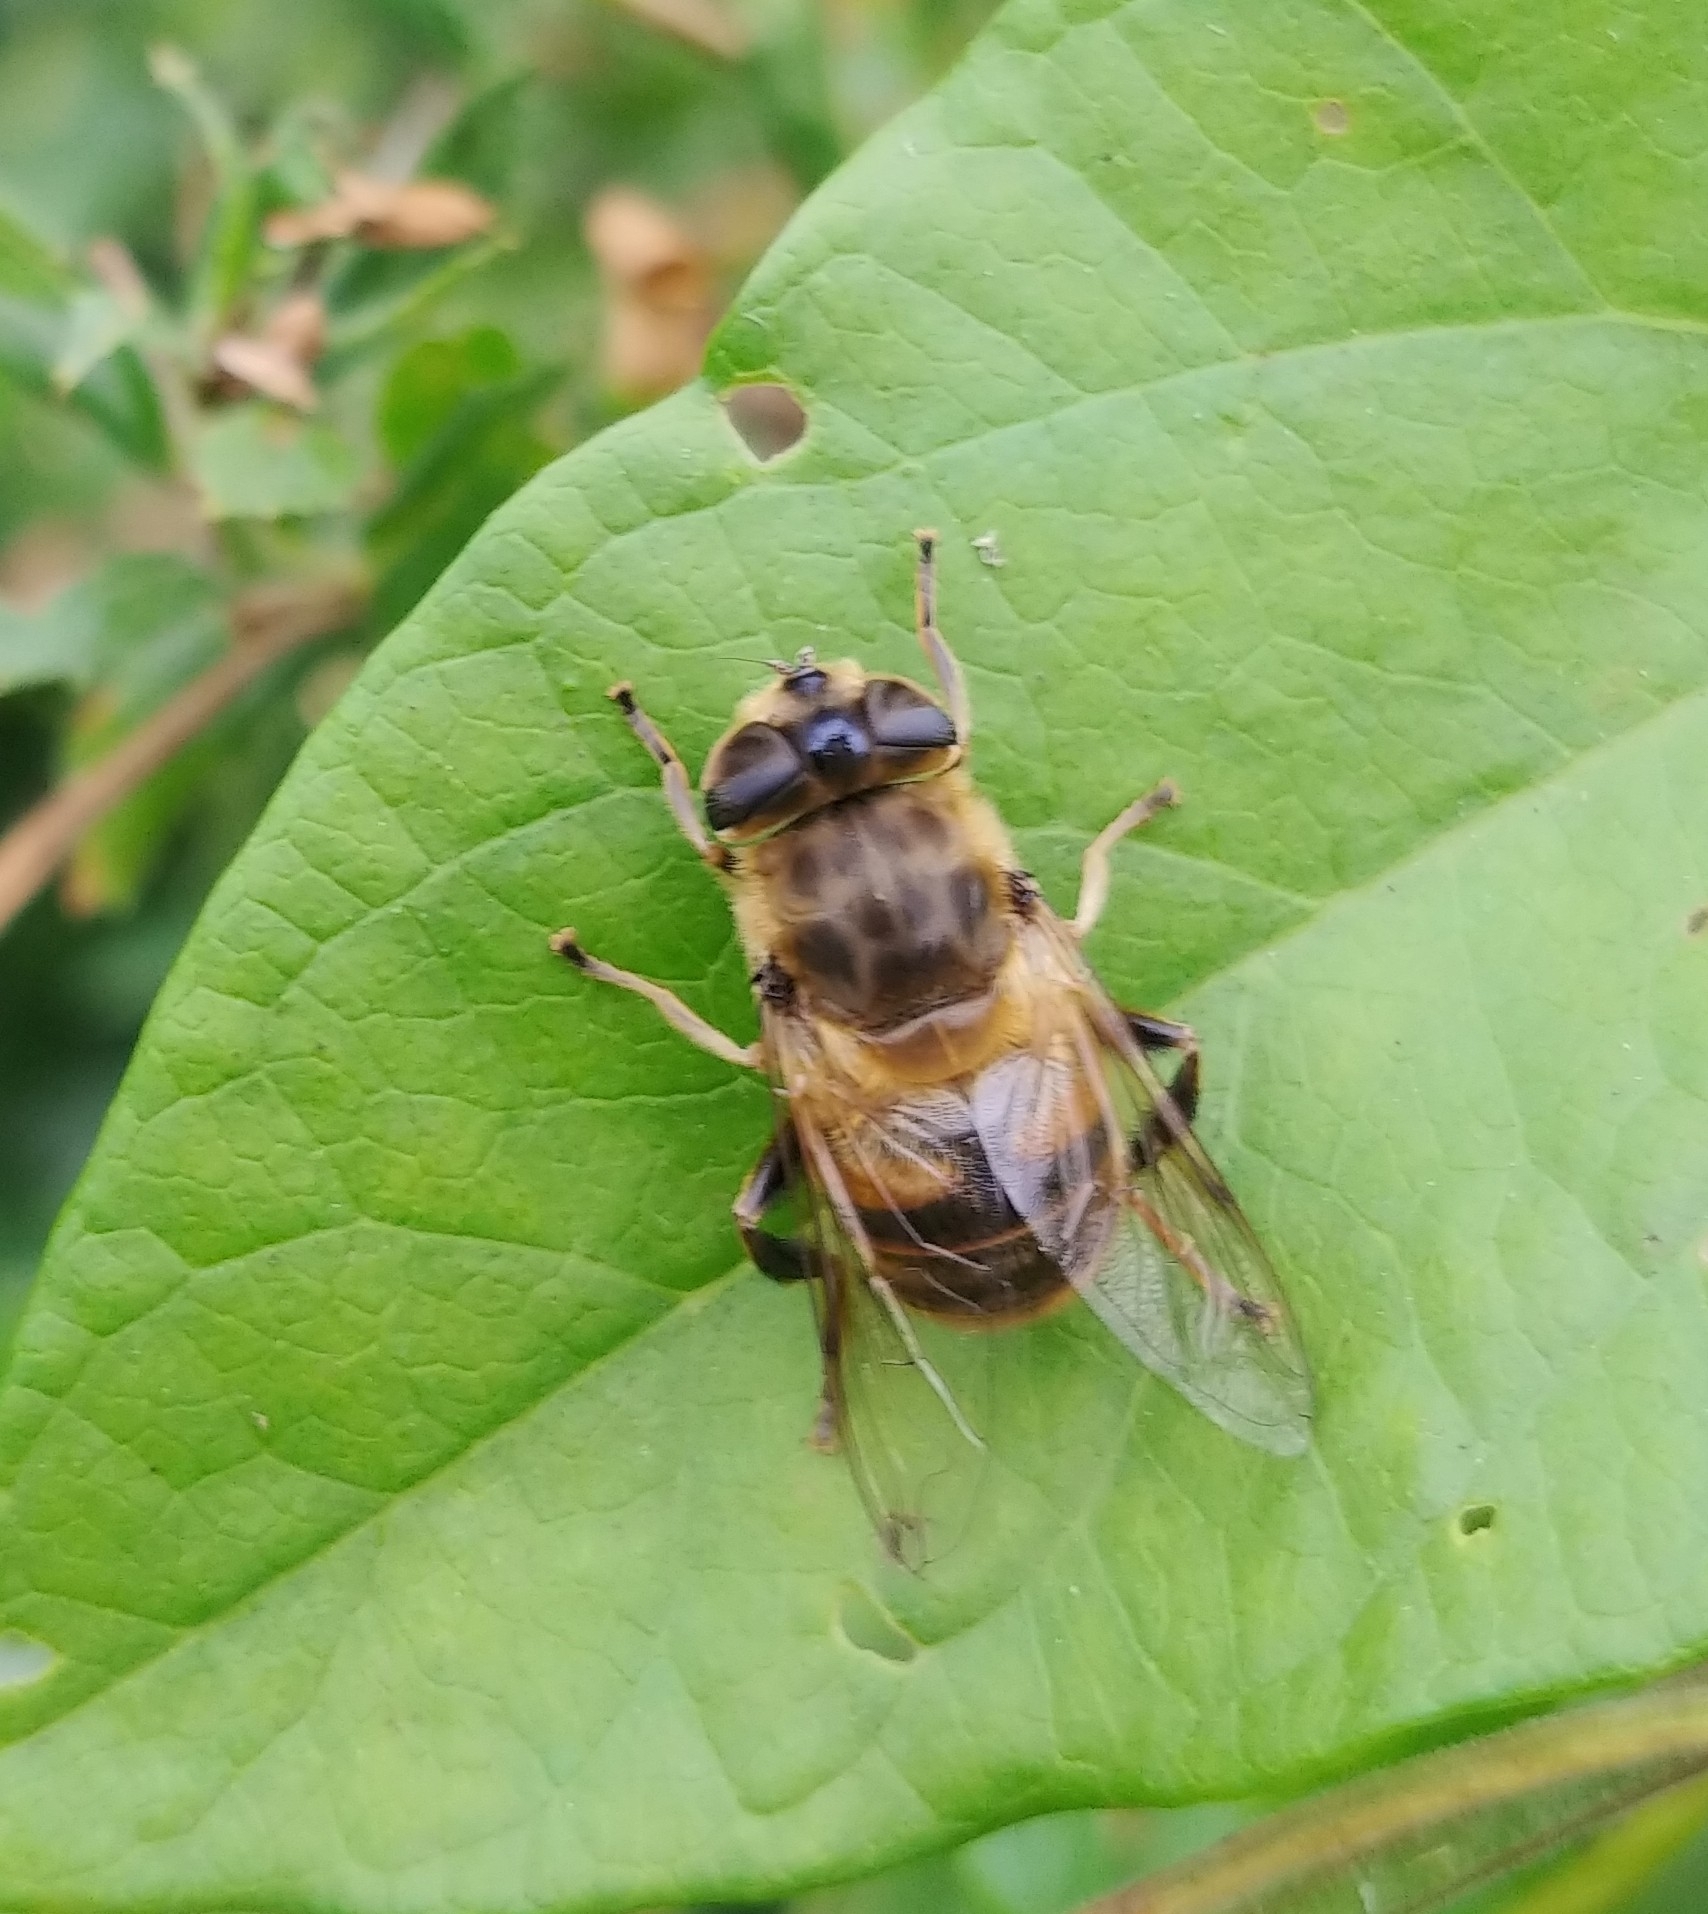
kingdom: Animalia
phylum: Arthropoda
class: Insecta
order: Diptera
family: Syrphidae
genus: Eristalis
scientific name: Eristalis tenax
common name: Drone fly
